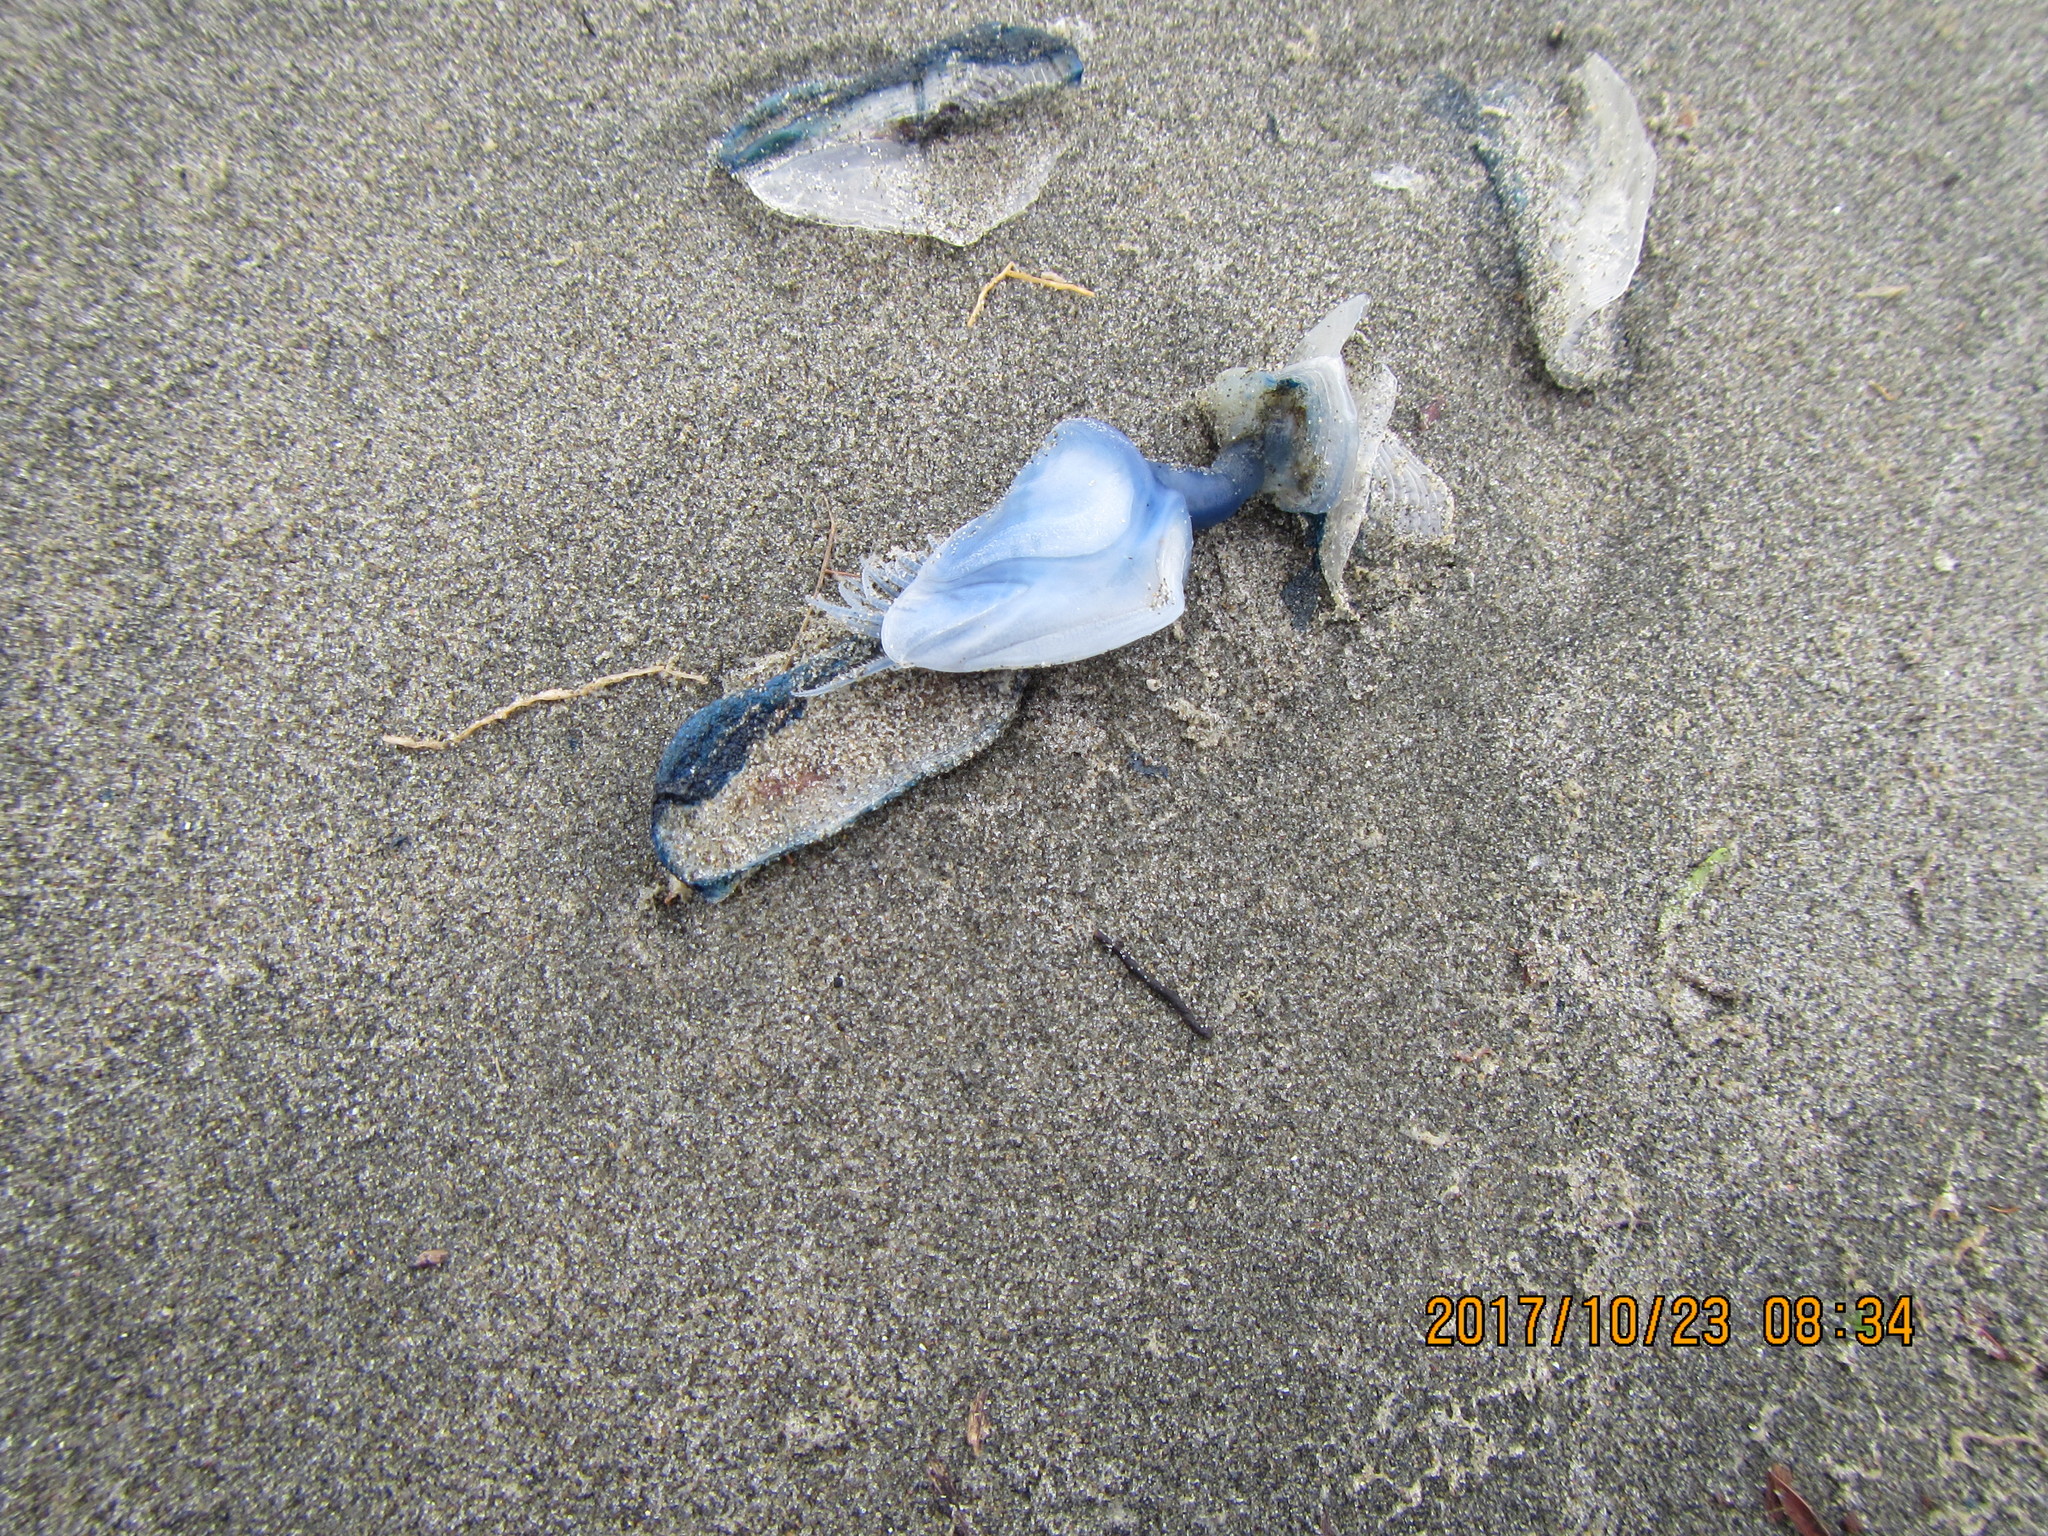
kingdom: Animalia
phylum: Arthropoda
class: Maxillopoda
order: Pedunculata
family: Lepadidae
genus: Dosima
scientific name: Dosima fascicularis
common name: Buoy barnacle
